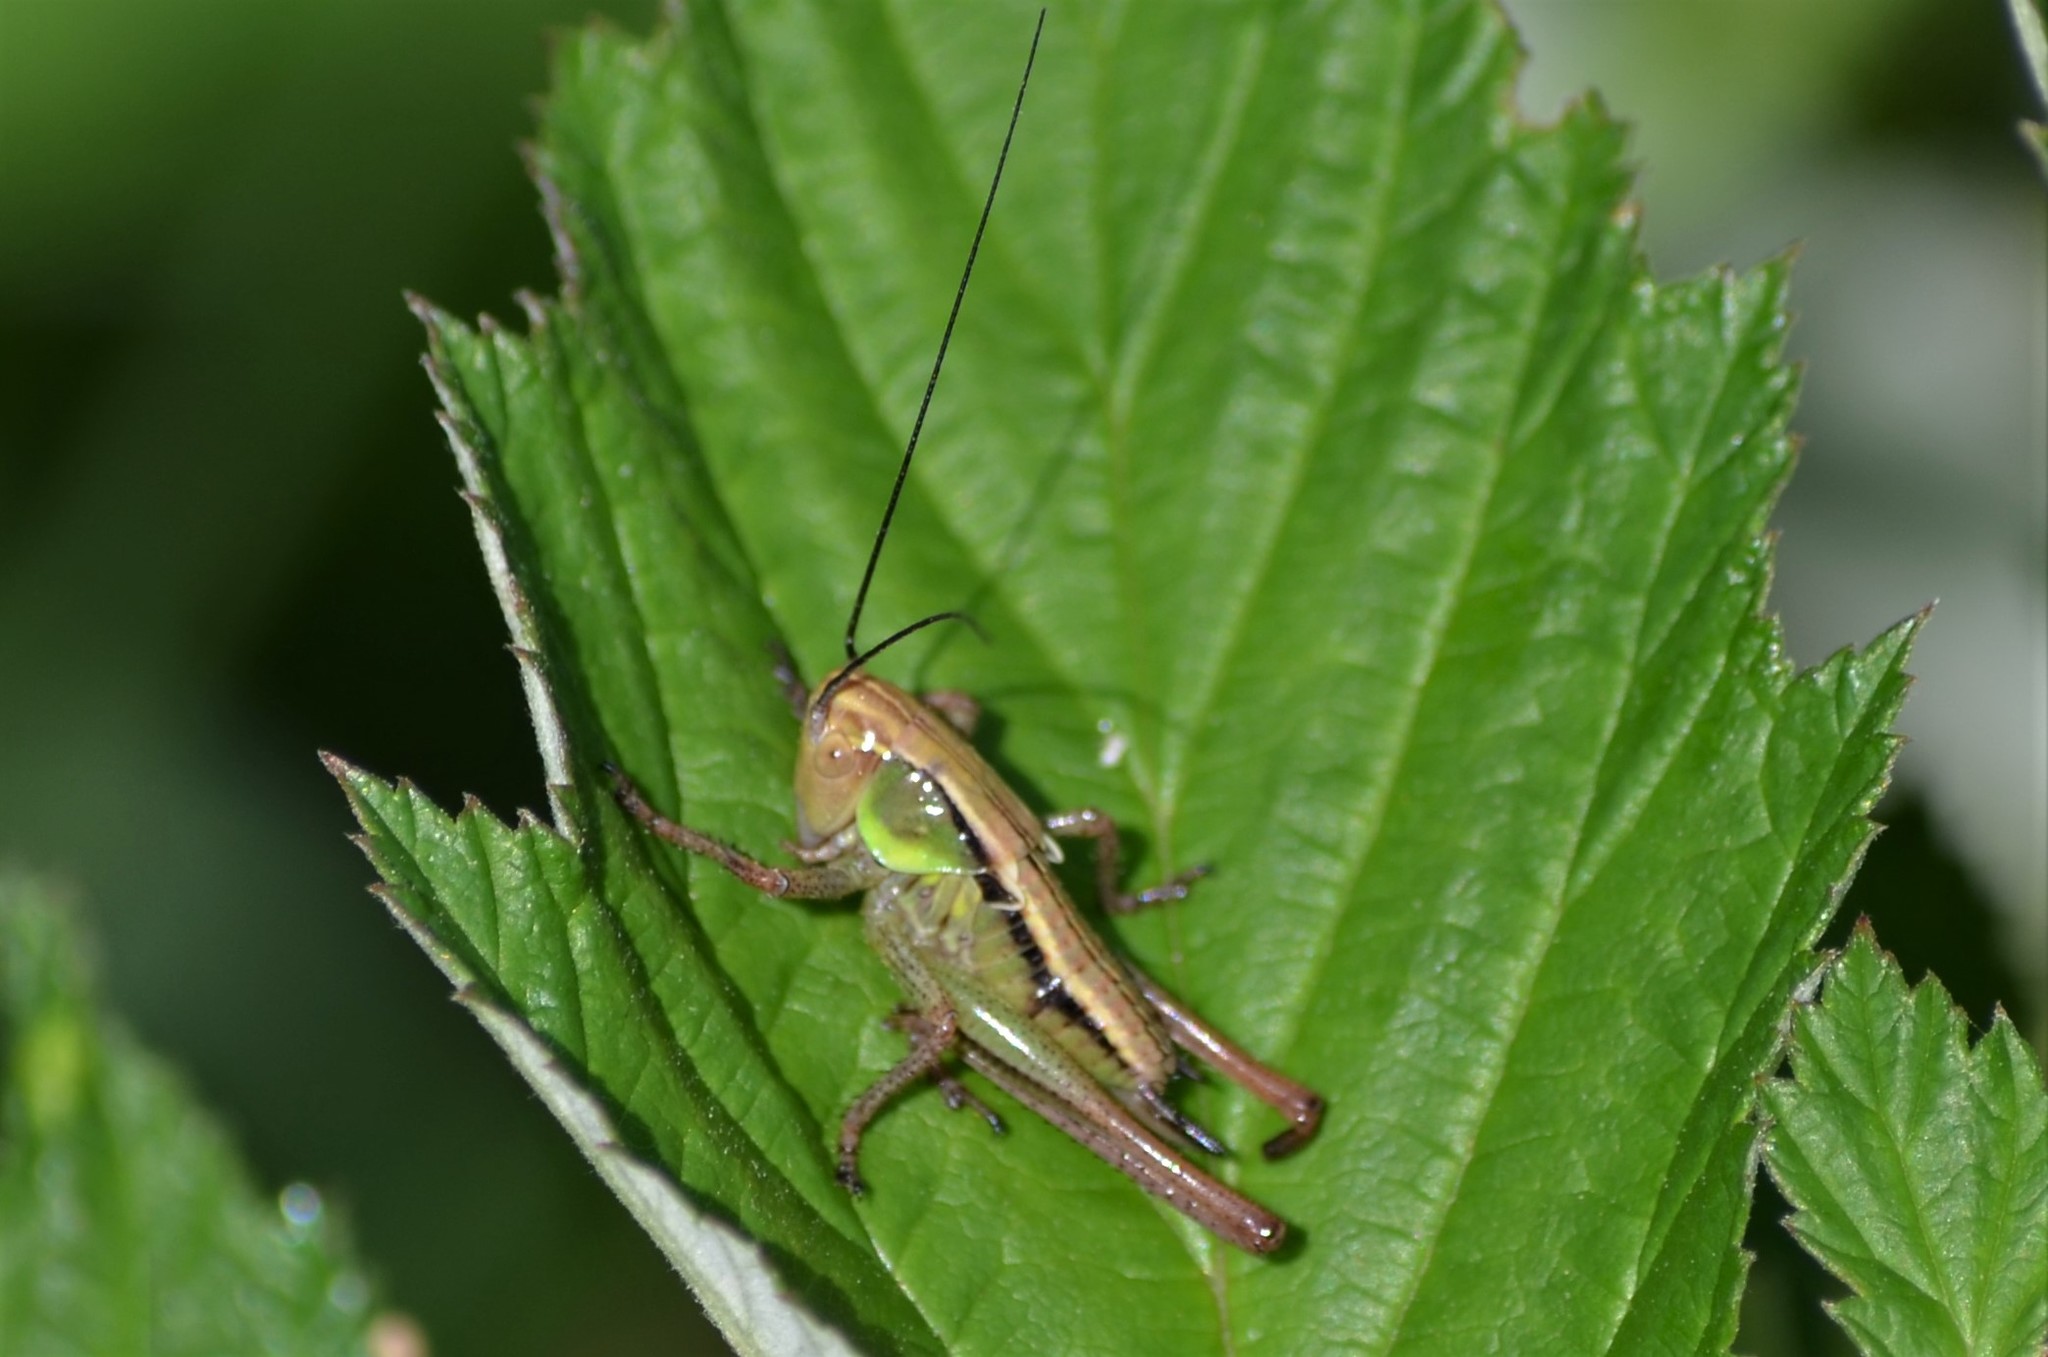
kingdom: Animalia
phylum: Arthropoda
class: Insecta
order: Orthoptera
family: Tettigoniidae
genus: Roeseliana
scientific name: Roeseliana roeselii
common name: Roesel's bush cricket
